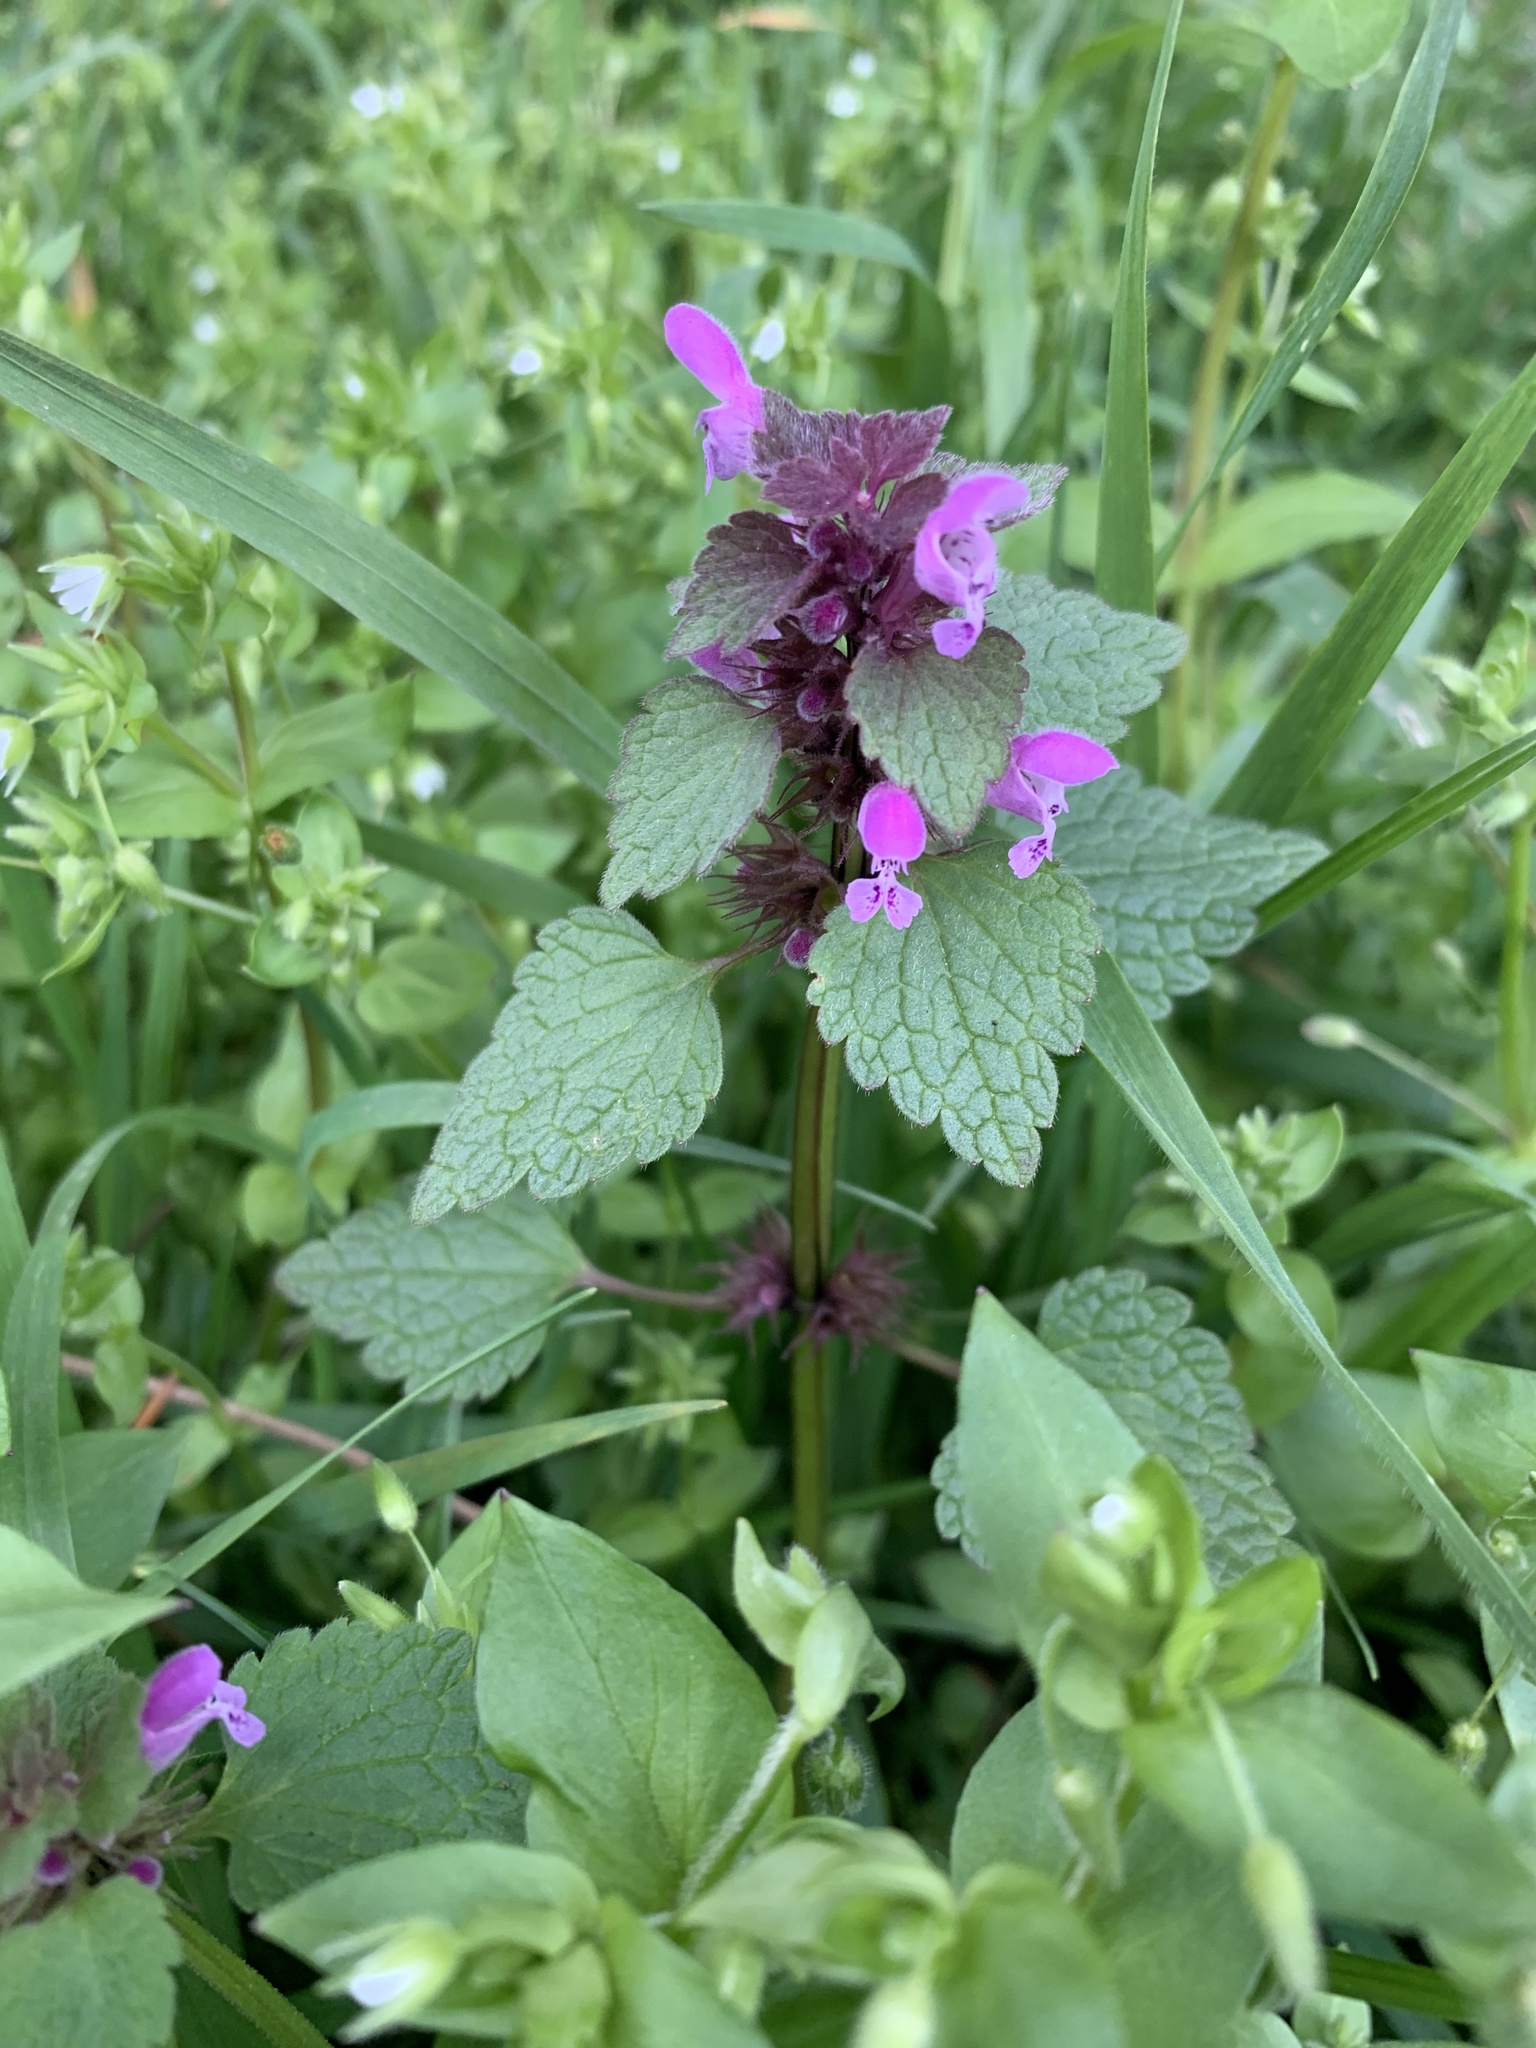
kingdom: Plantae
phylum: Tracheophyta
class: Magnoliopsida
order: Lamiales
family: Lamiaceae
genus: Lamium
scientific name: Lamium purpureum
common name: Red dead-nettle
